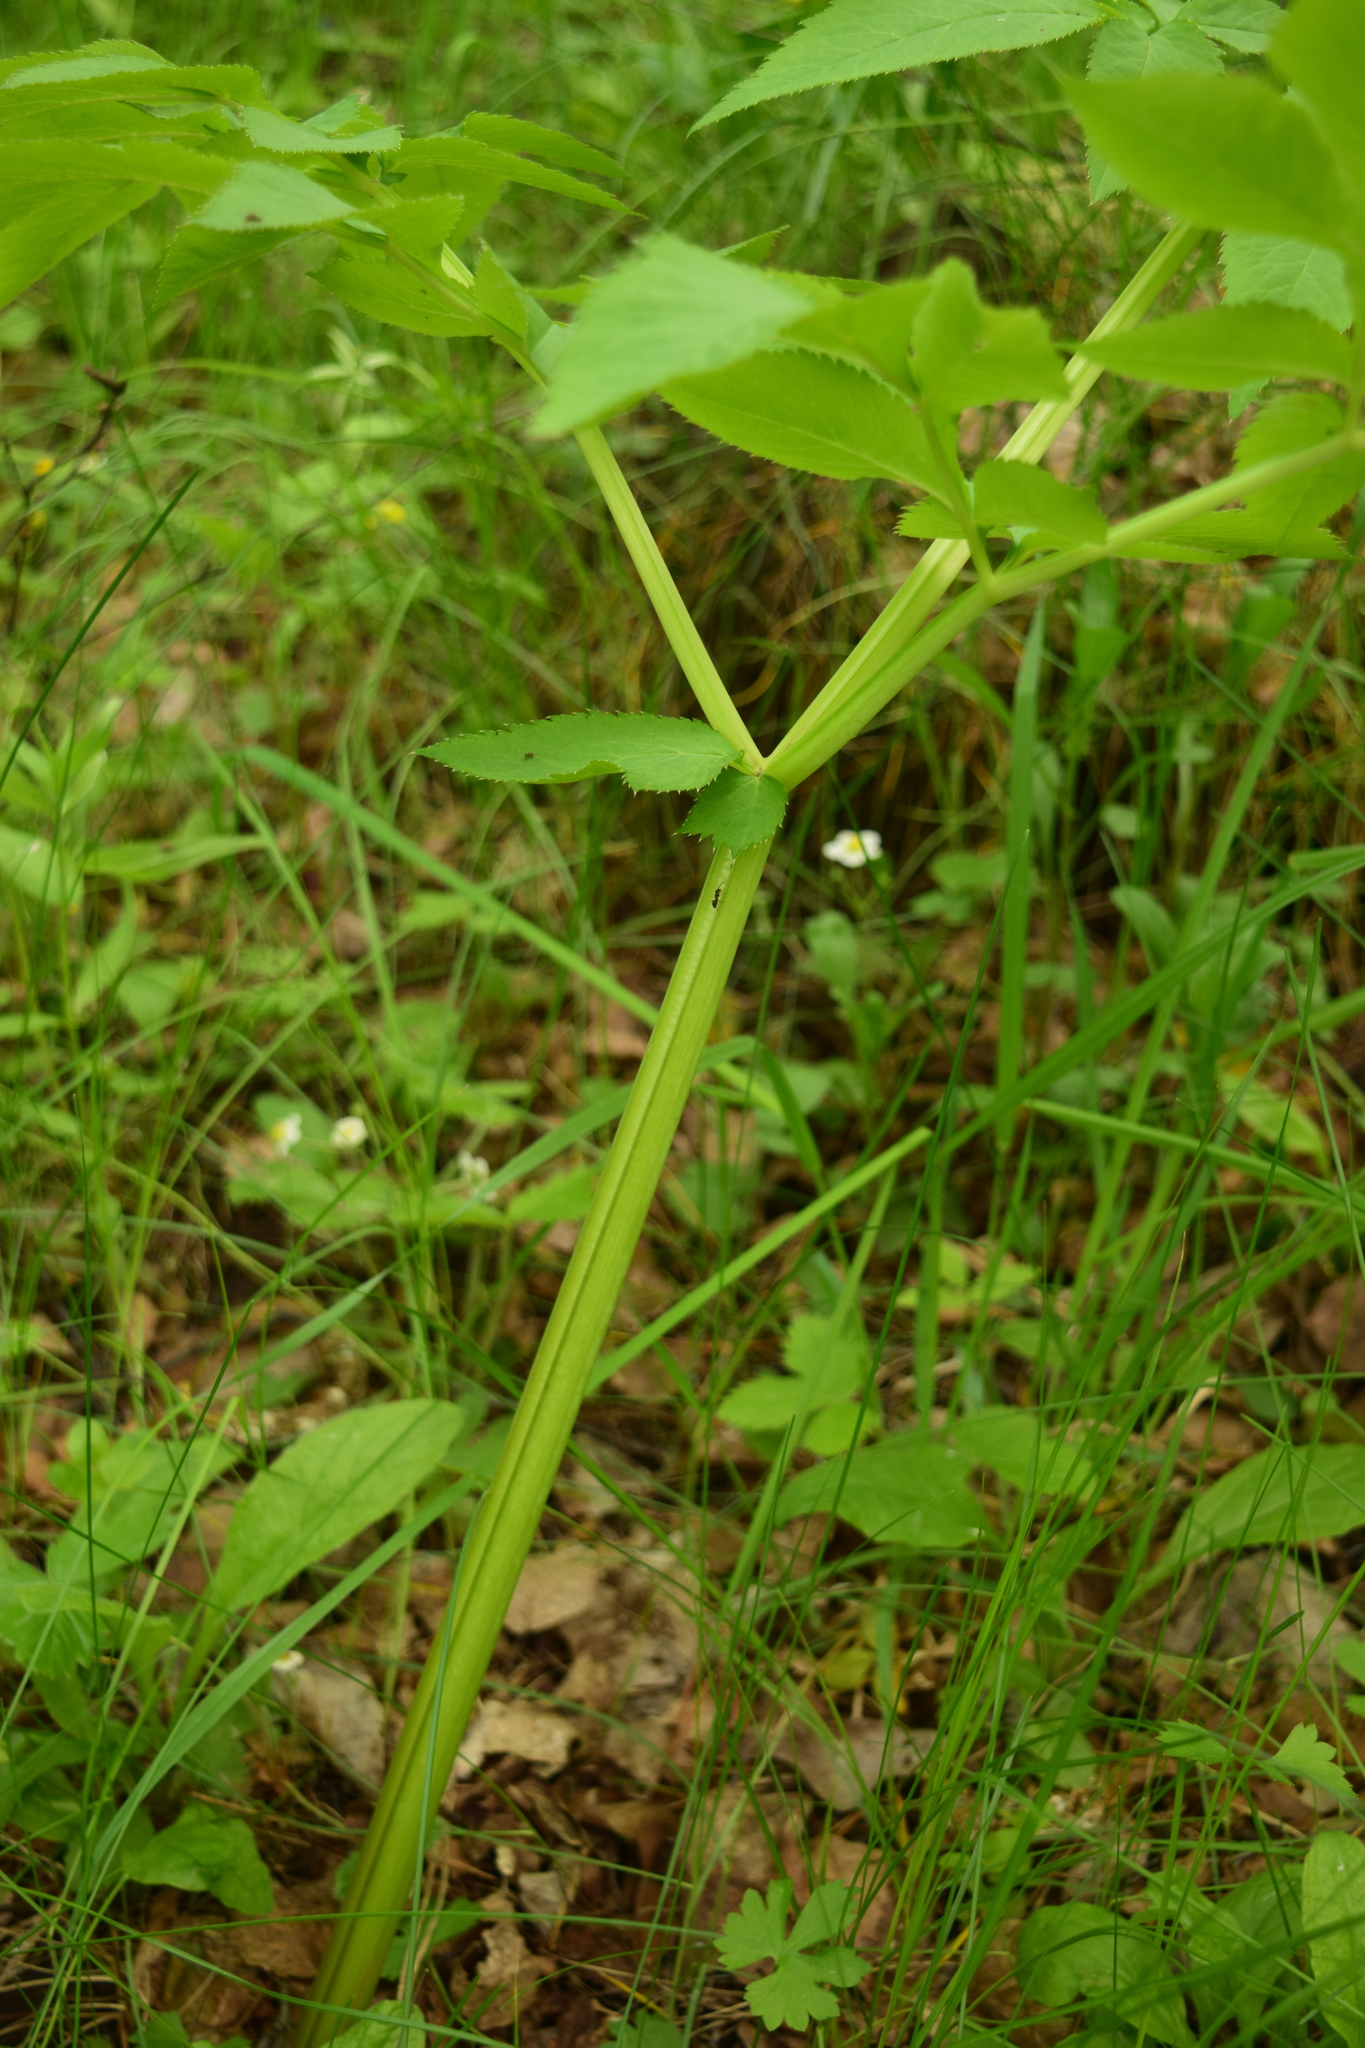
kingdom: Plantae
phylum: Tracheophyta
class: Magnoliopsida
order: Apiales
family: Apiaceae
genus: Angelica
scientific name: Angelica sylvestris
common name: Wild angelica
